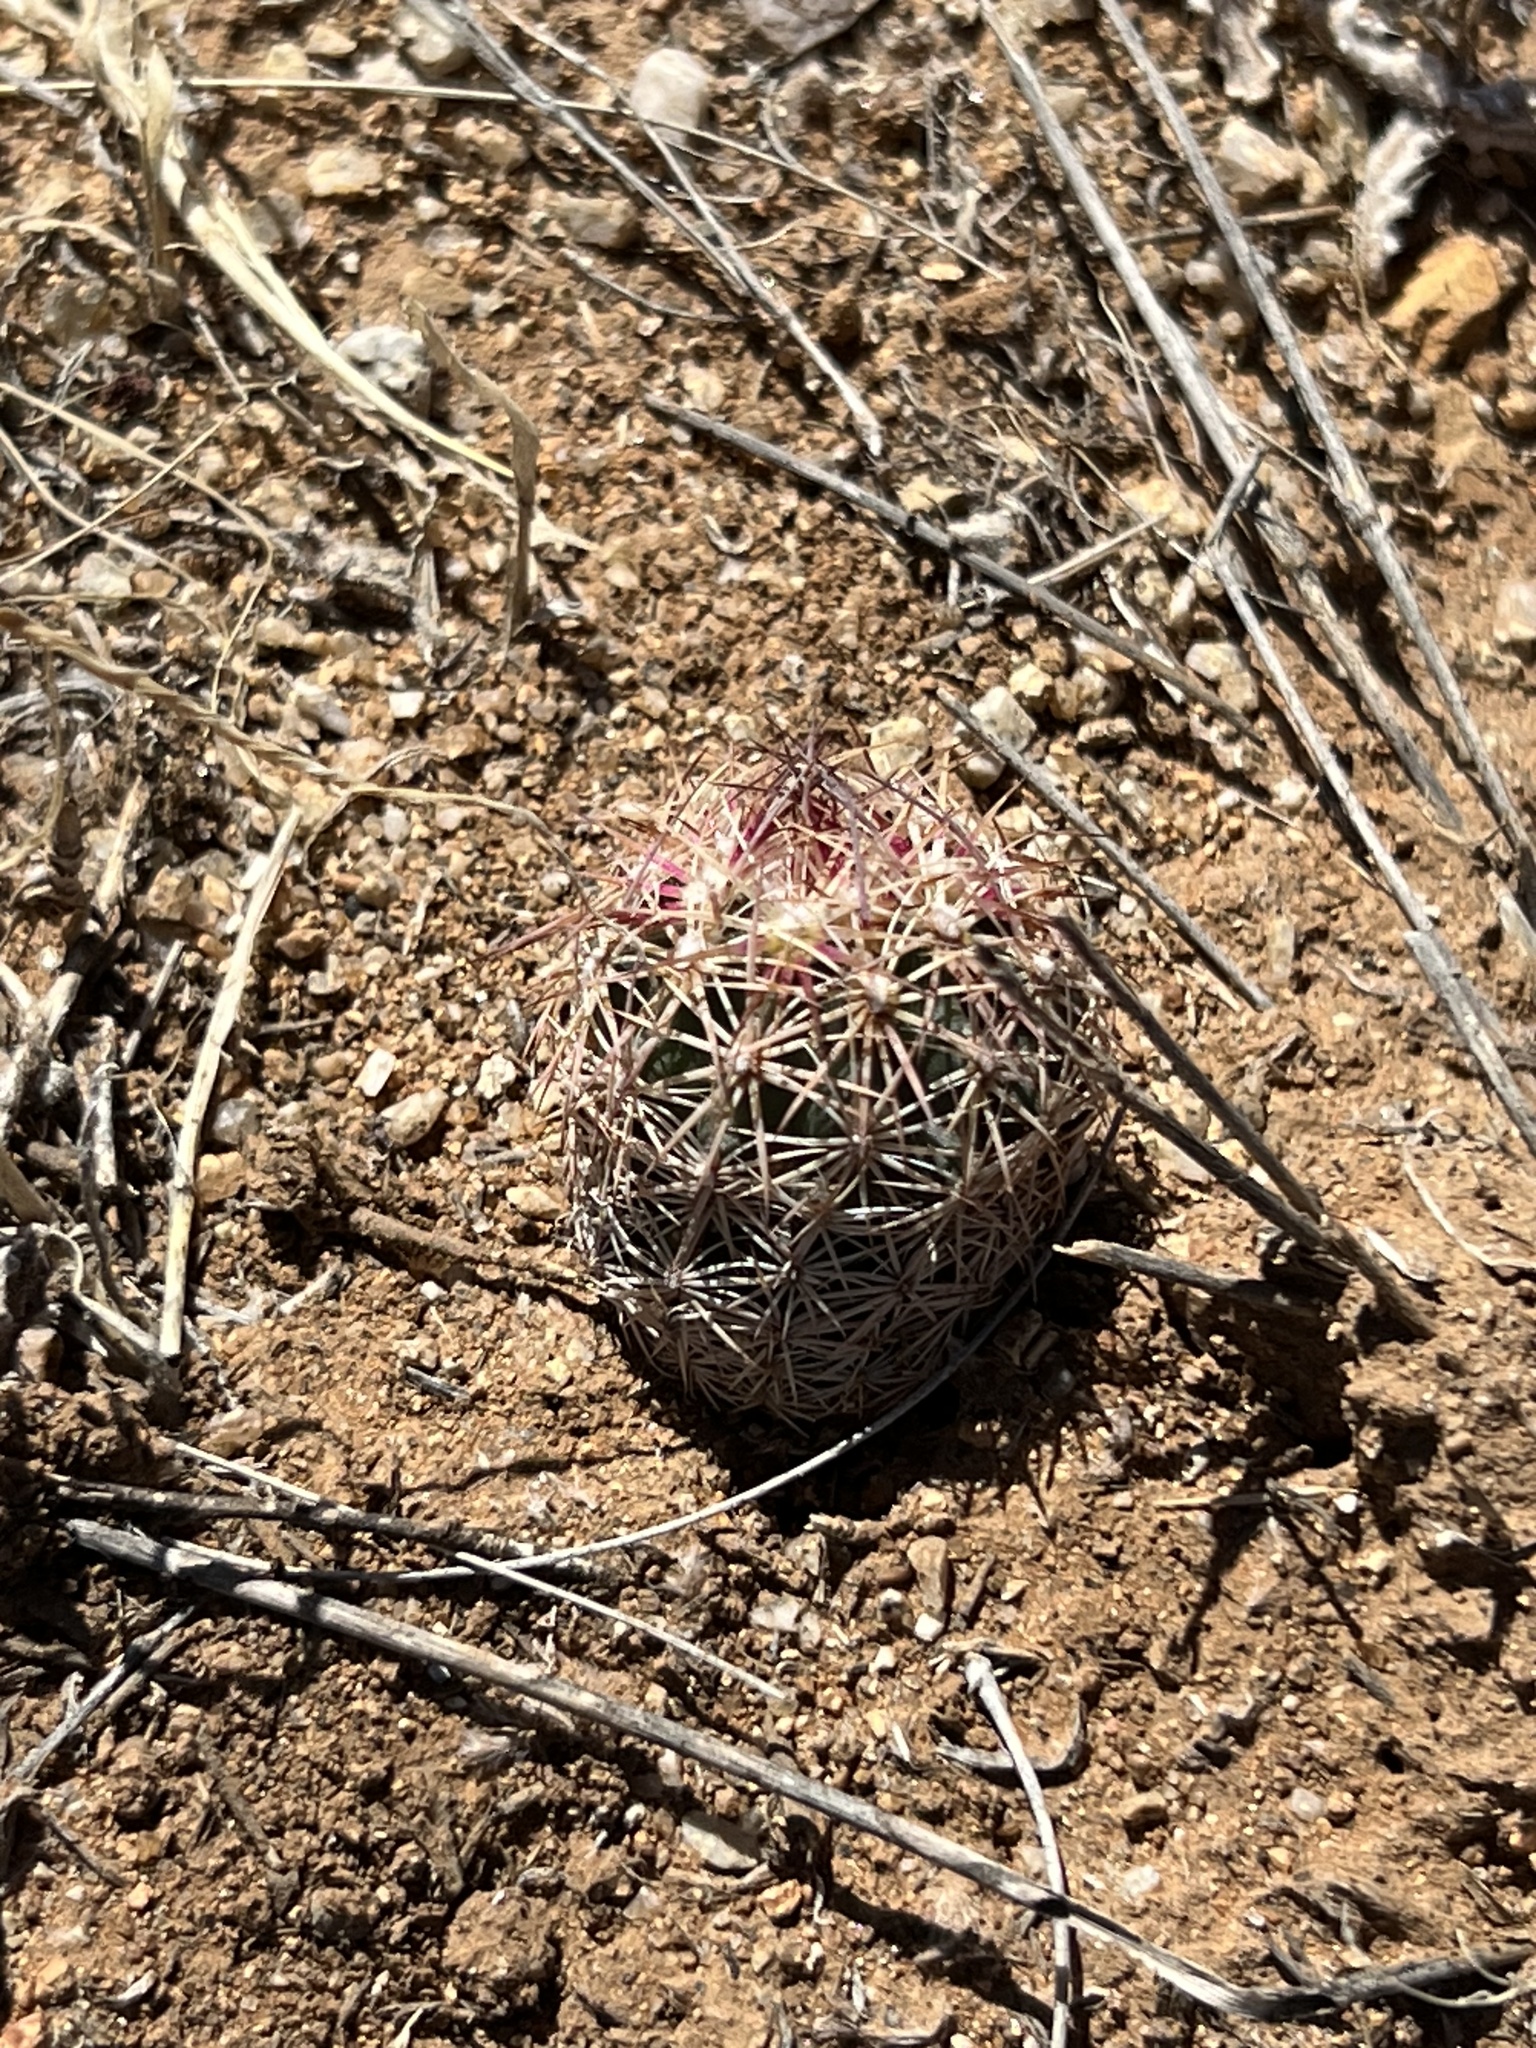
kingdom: Plantae
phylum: Tracheophyta
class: Magnoliopsida
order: Caryophyllales
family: Cactaceae
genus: Sclerocactus
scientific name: Sclerocactus intertextus
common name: White fish-hook cactus
